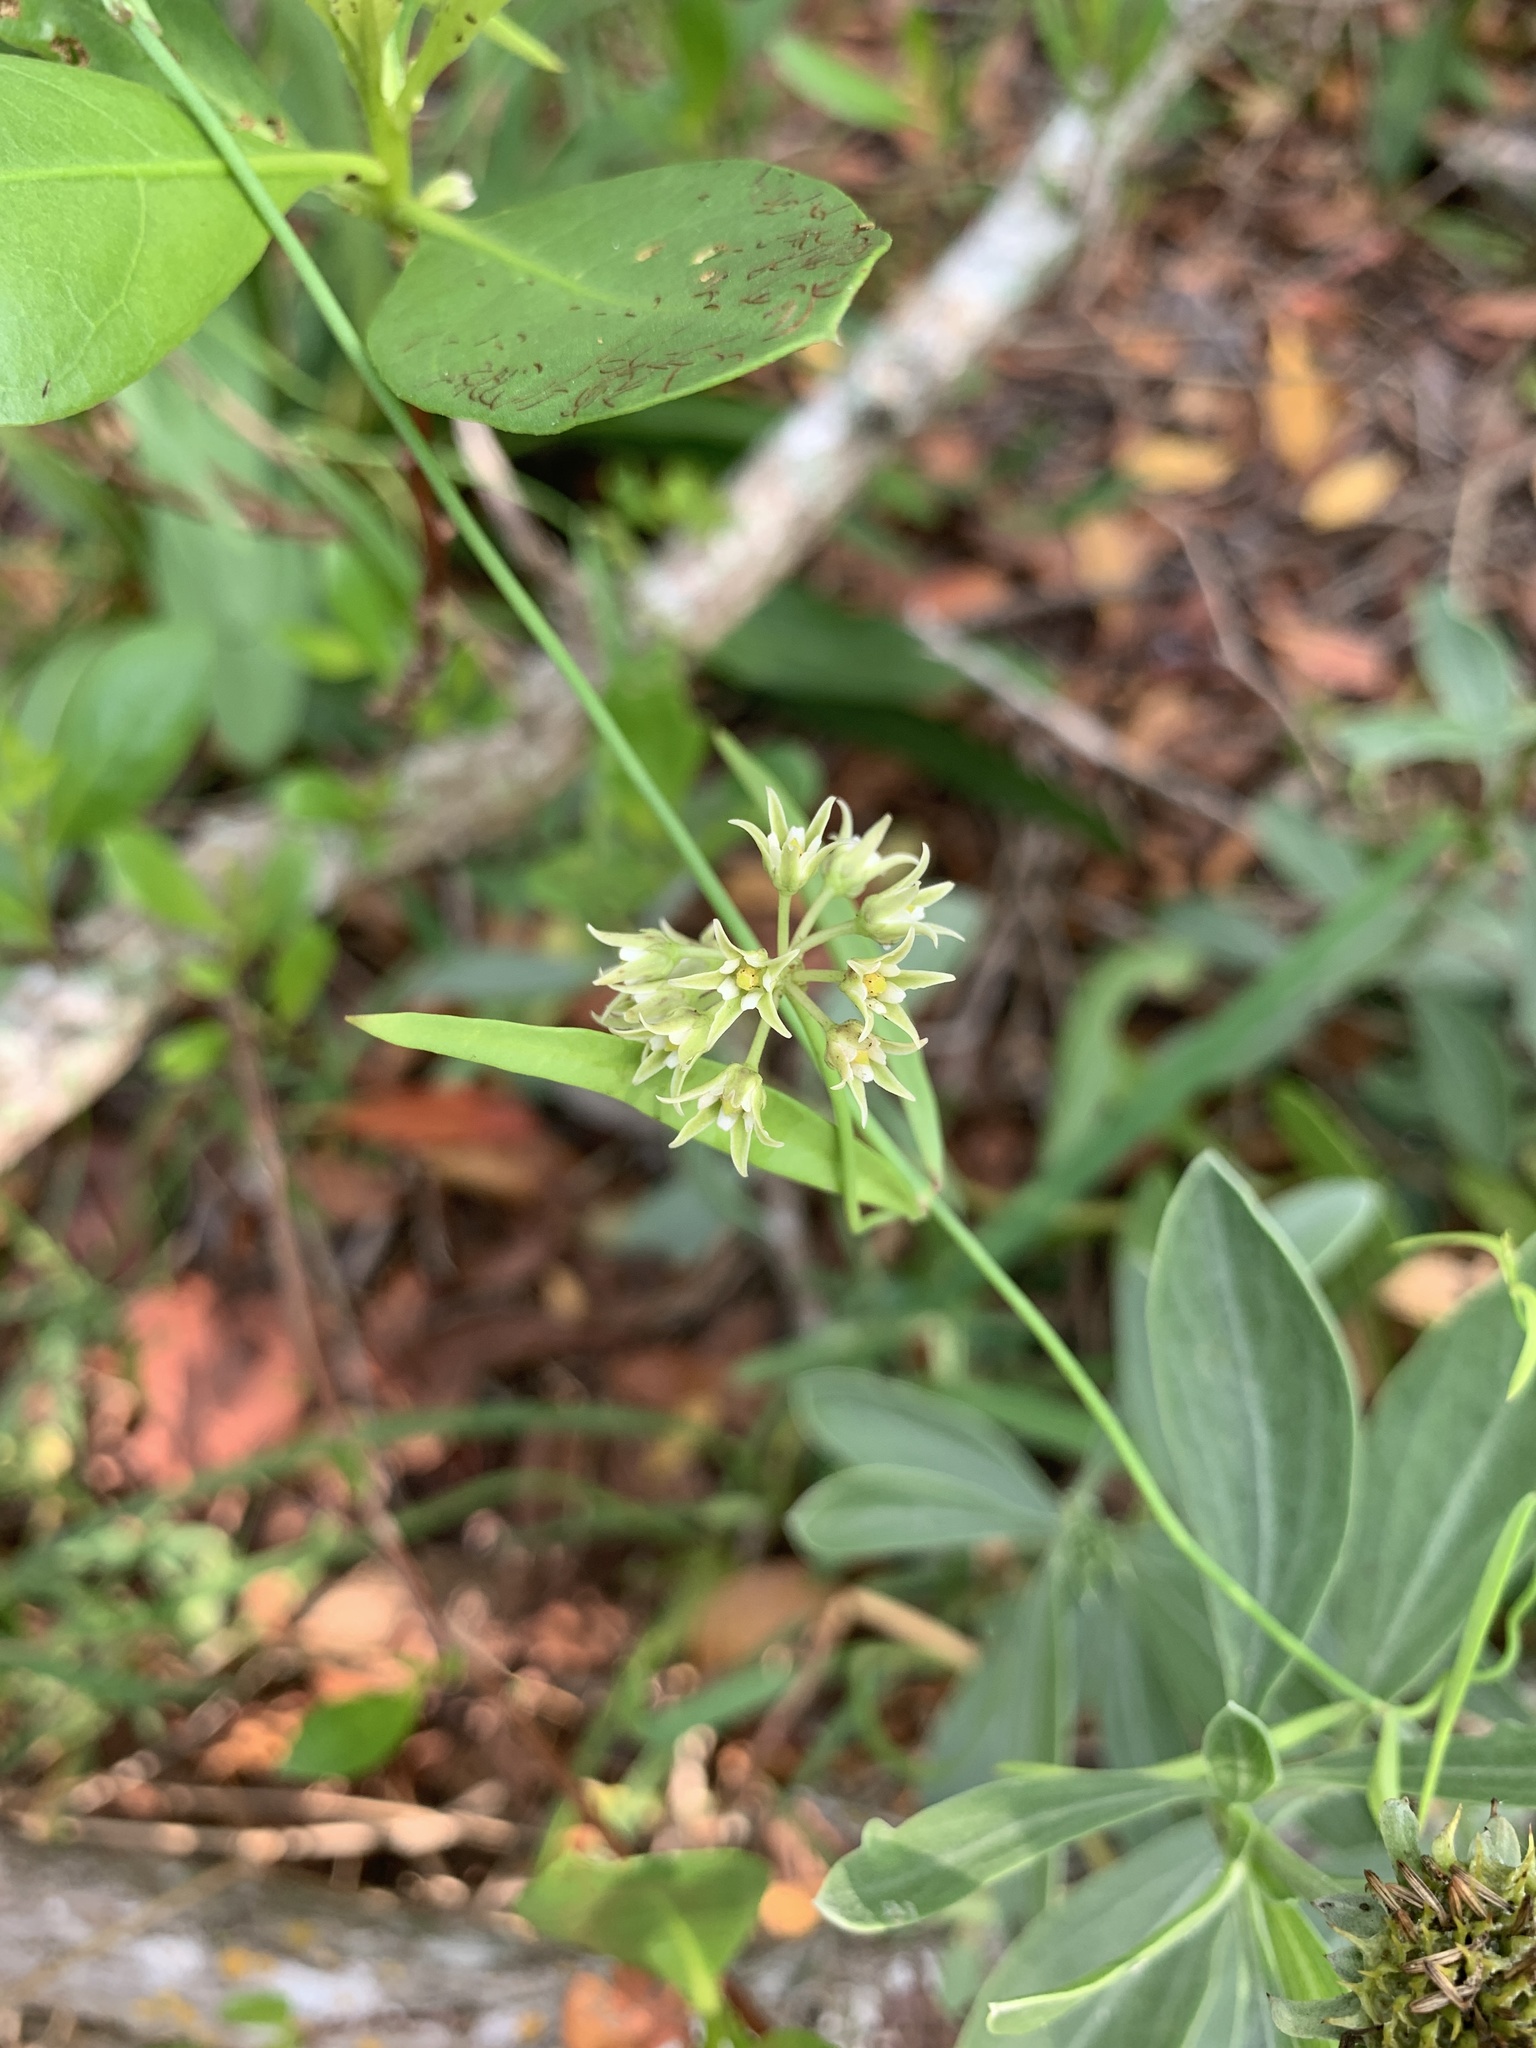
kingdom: Plantae
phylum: Tracheophyta
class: Magnoliopsida
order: Gentianales
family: Apocynaceae
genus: Pattalias
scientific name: Pattalias
